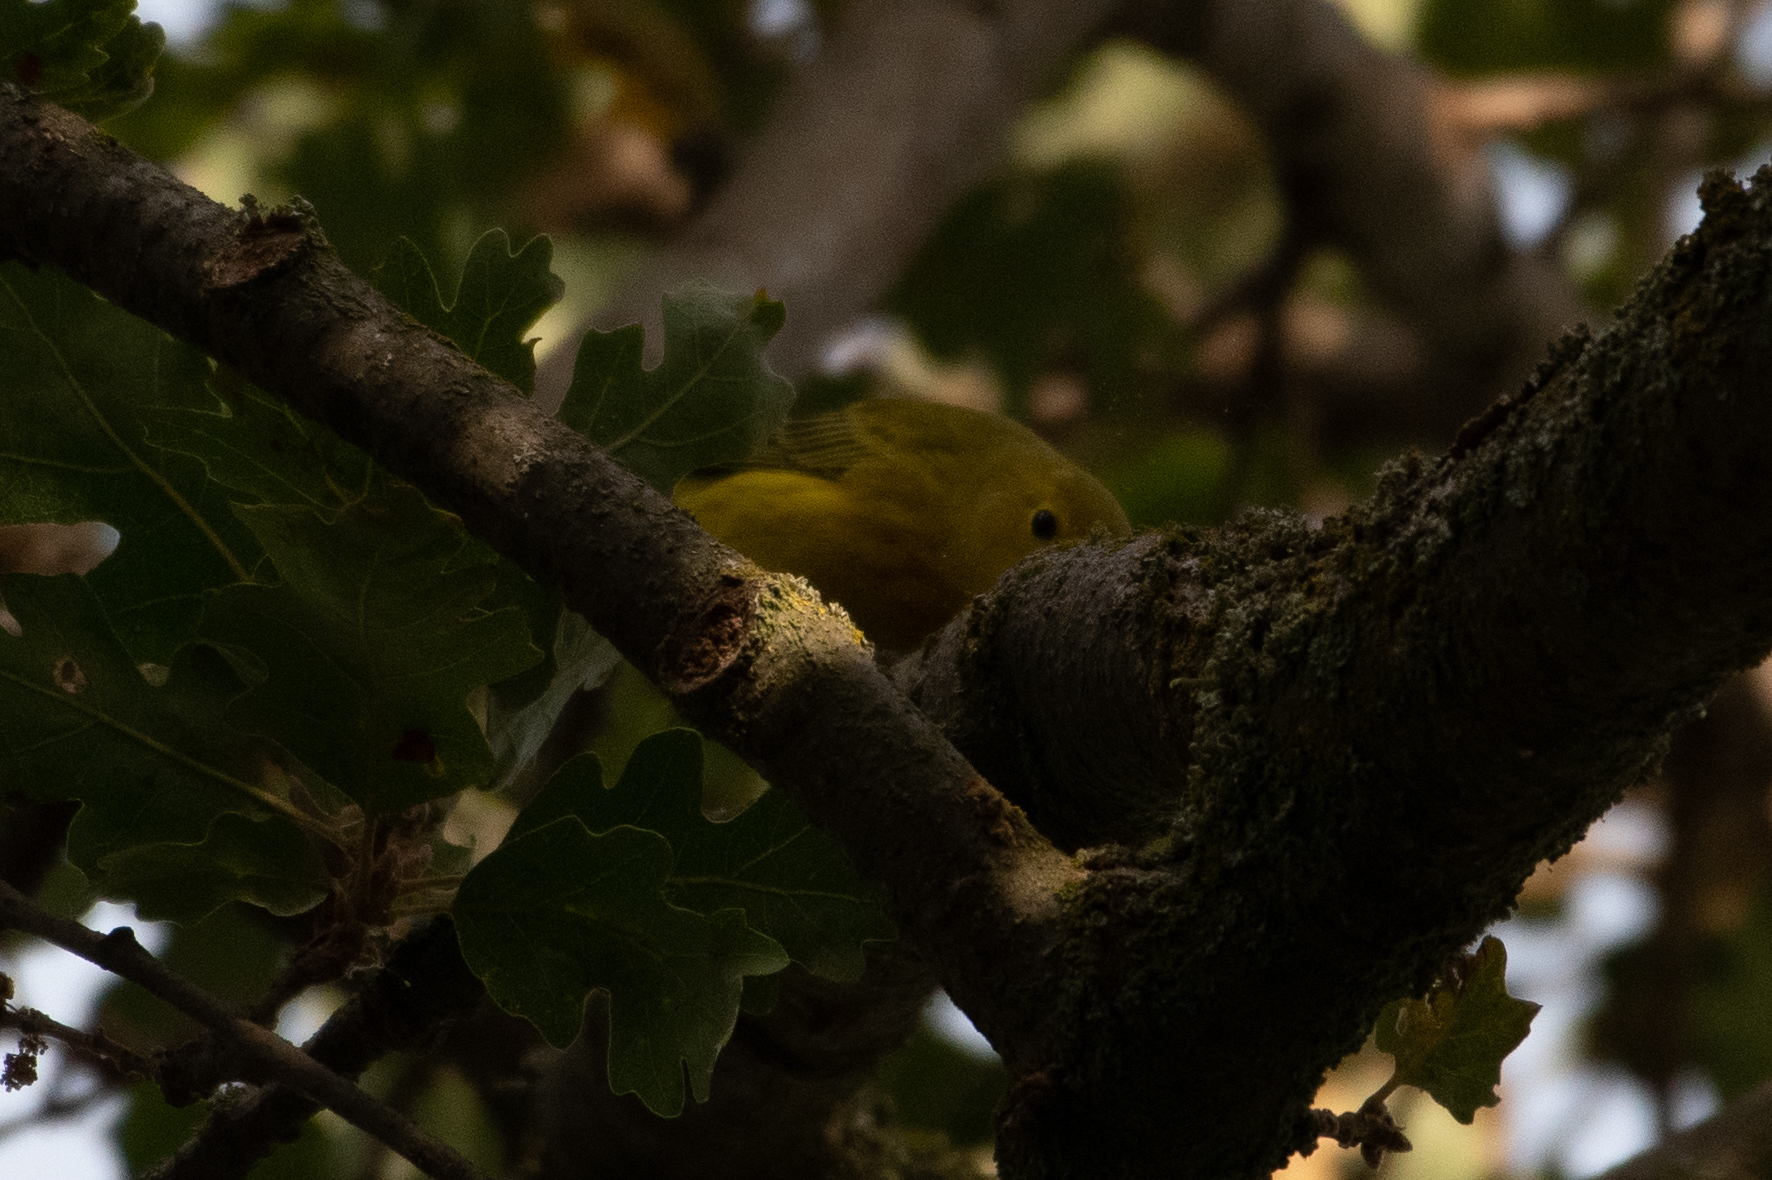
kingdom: Animalia
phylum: Chordata
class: Aves
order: Passeriformes
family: Parulidae
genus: Setophaga
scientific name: Setophaga petechia
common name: Yellow warbler
